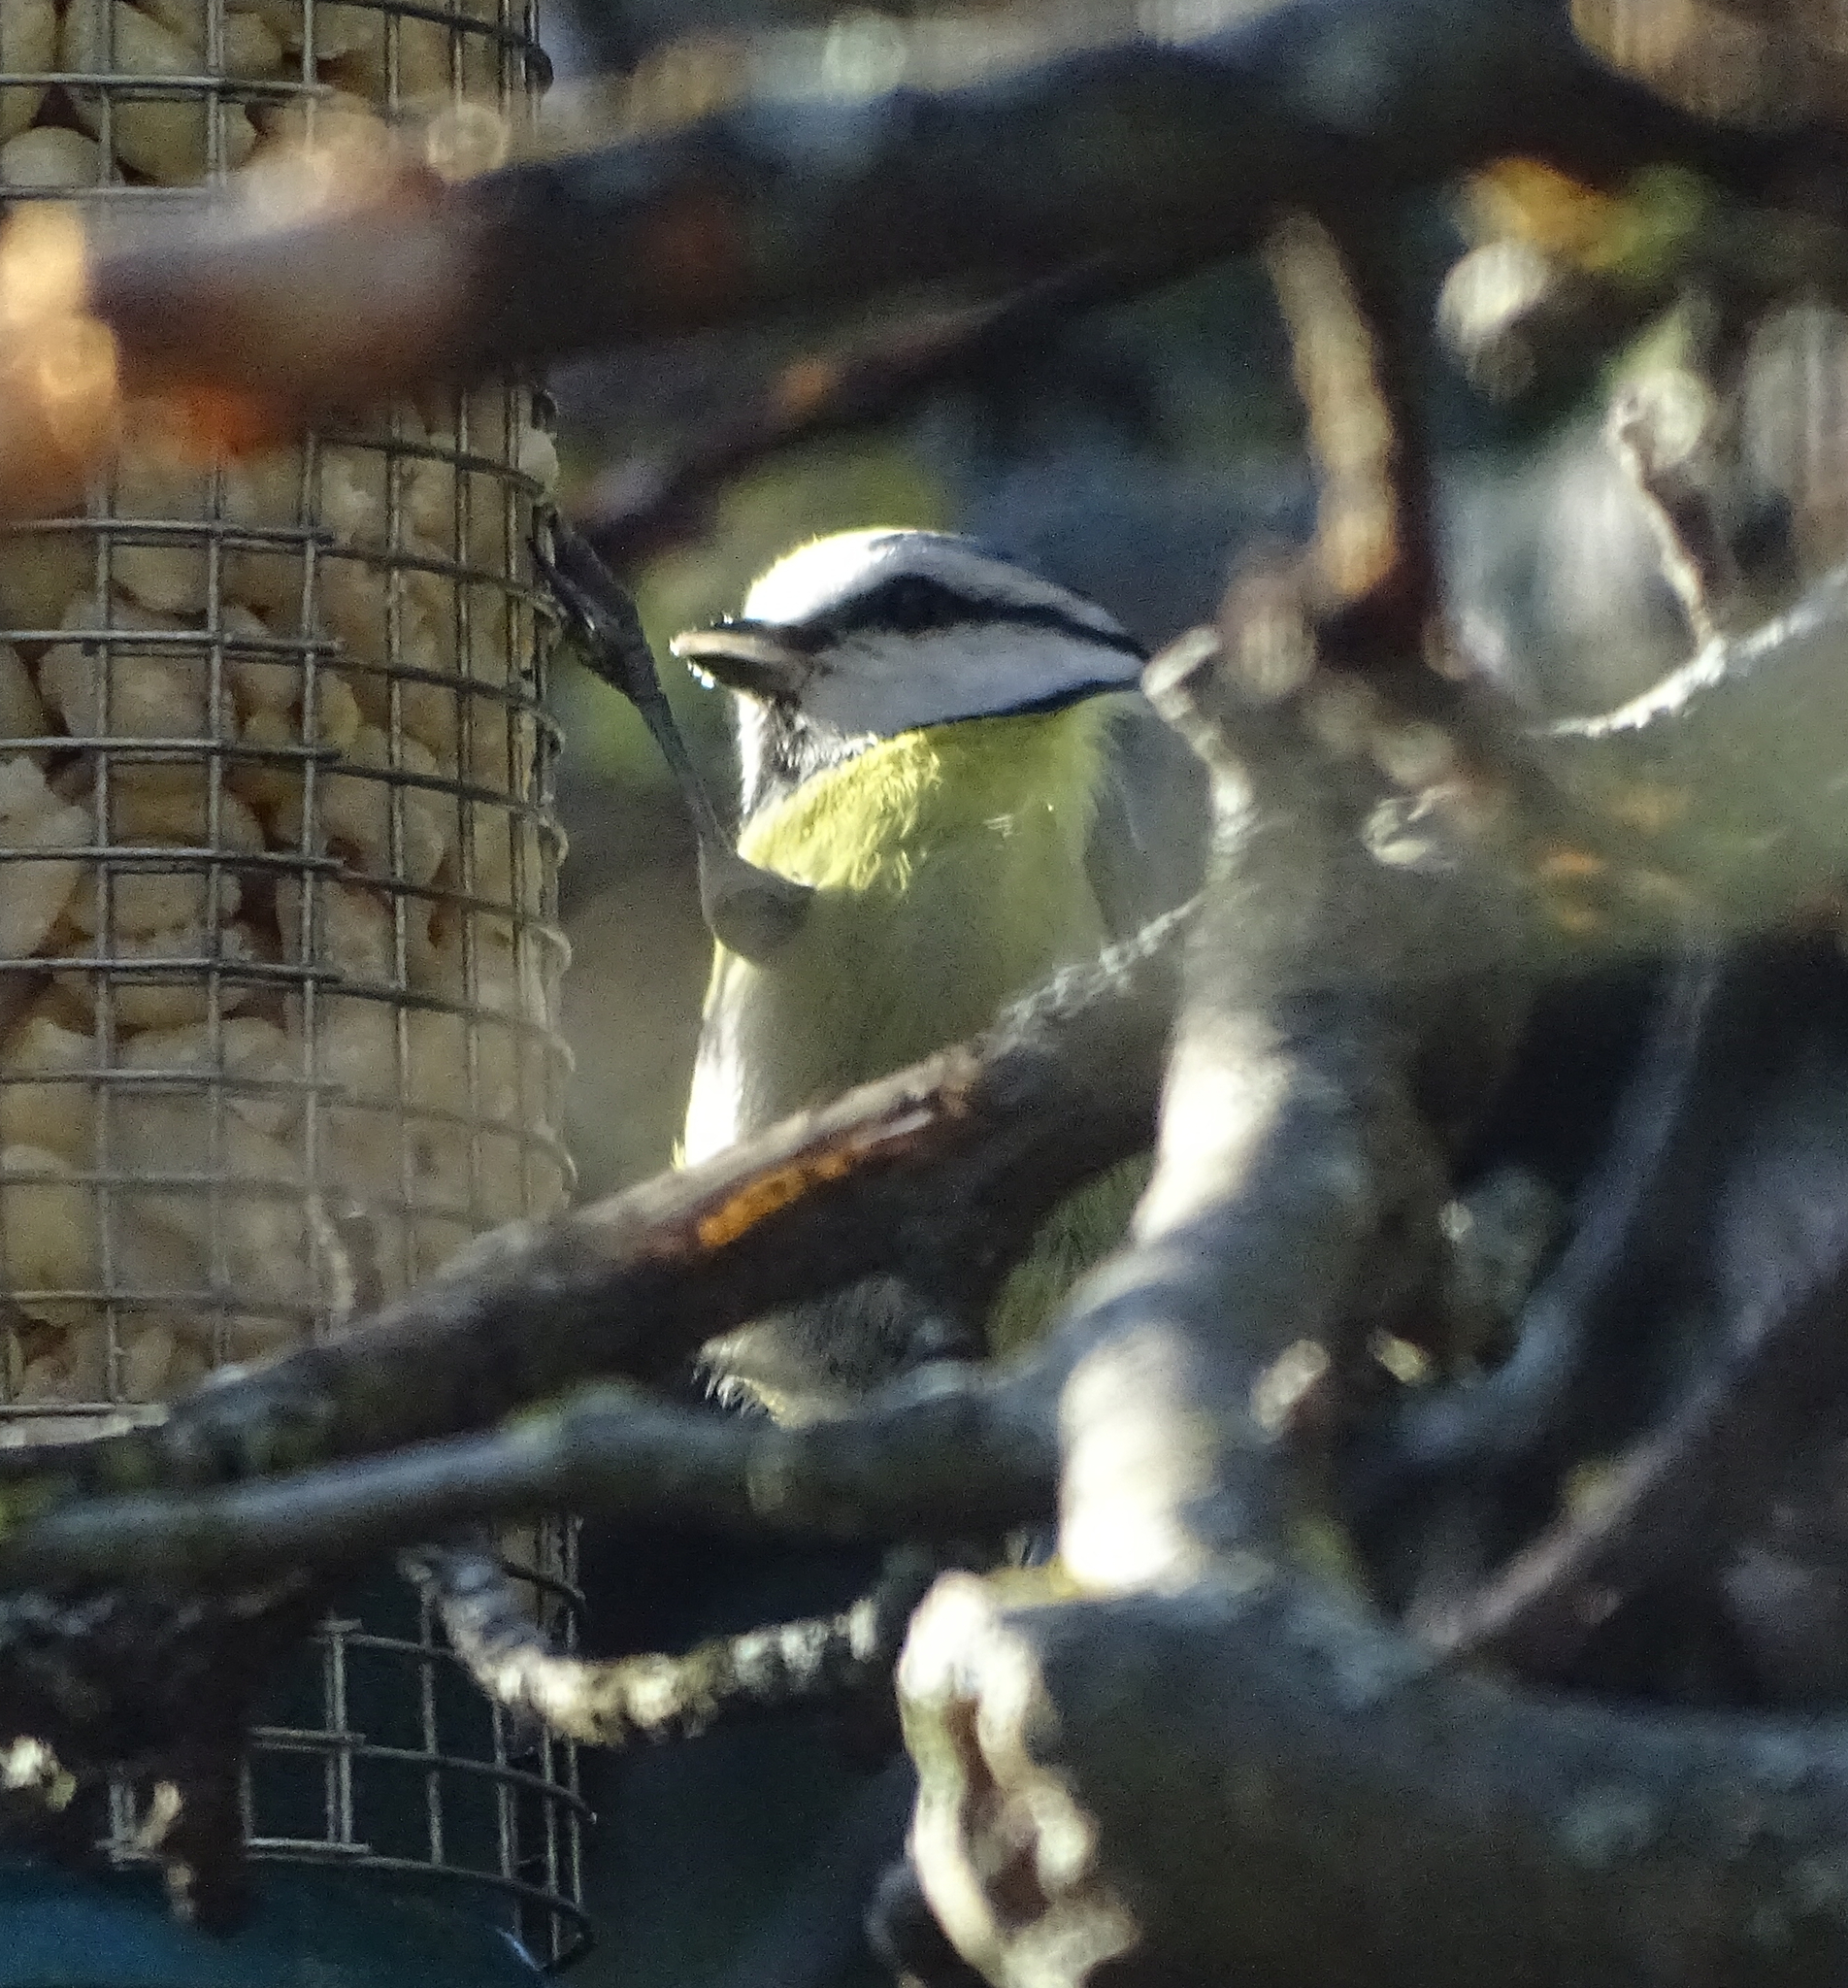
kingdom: Animalia
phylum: Chordata
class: Aves
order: Passeriformes
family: Paridae
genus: Cyanistes
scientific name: Cyanistes caeruleus
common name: Eurasian blue tit
